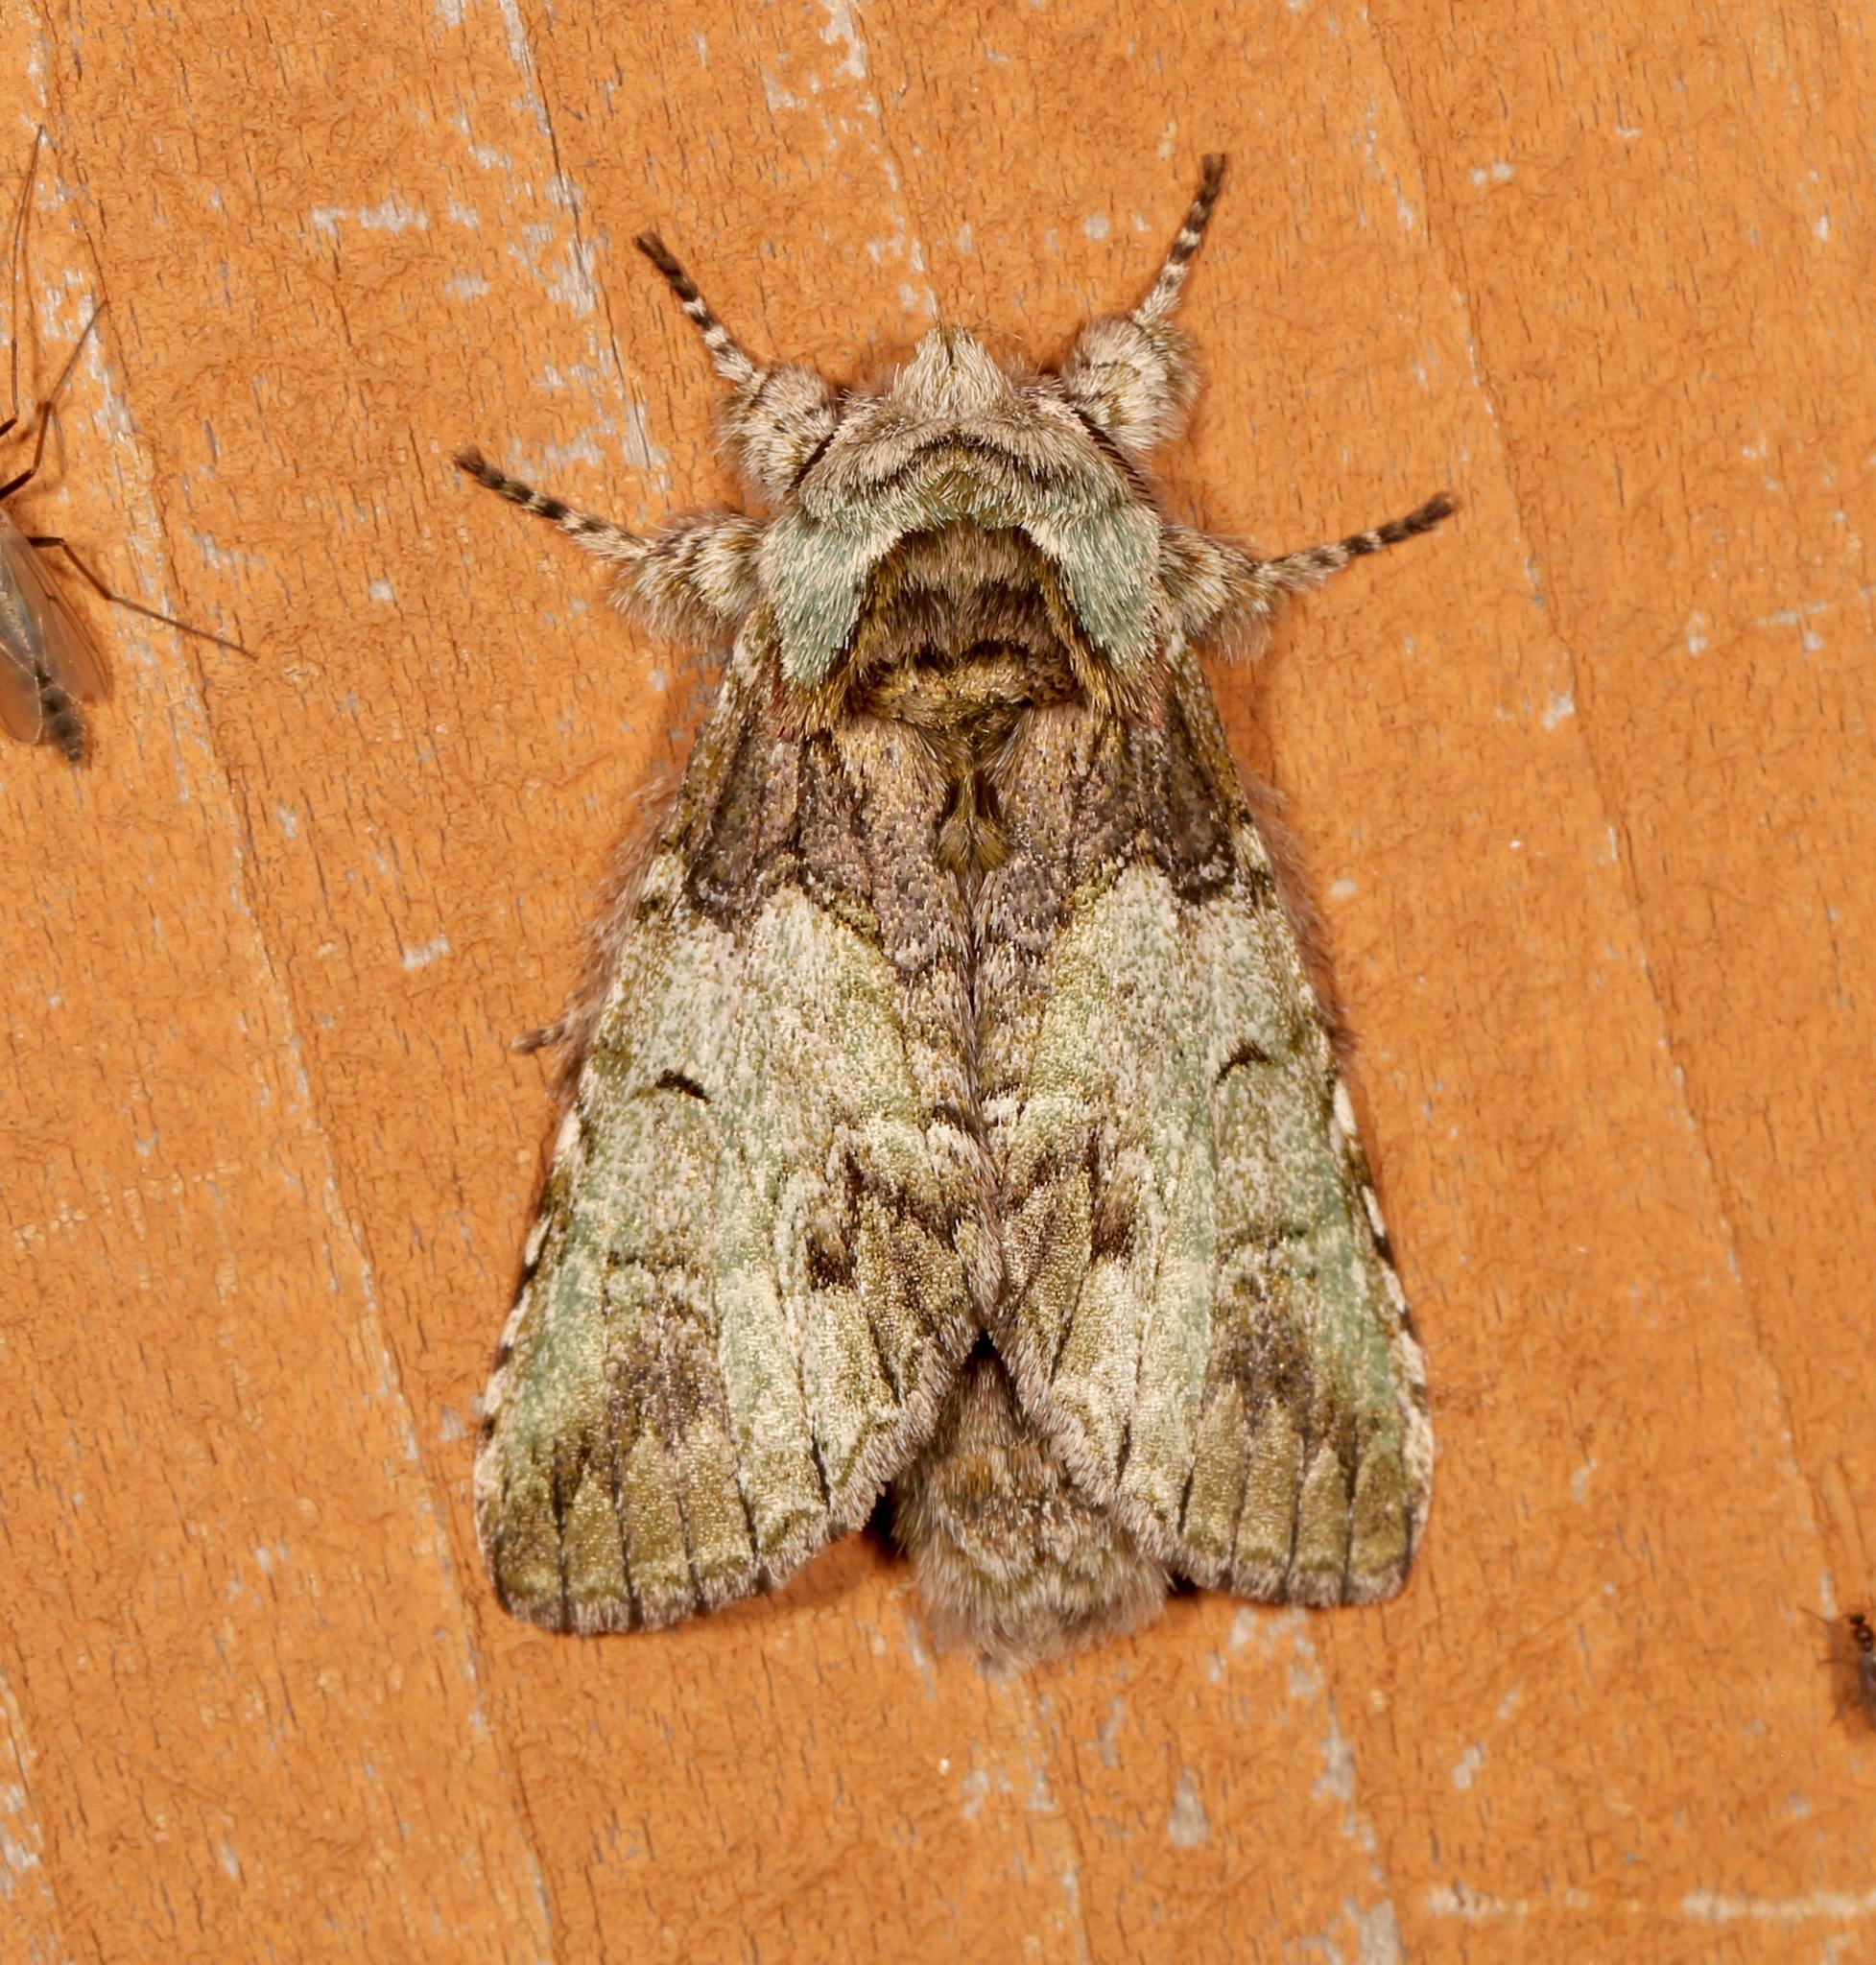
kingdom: Animalia
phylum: Arthropoda
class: Insecta
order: Lepidoptera
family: Notodontidae
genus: Macrurocampa
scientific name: Macrurocampa marthesia
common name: Mottled prominent
